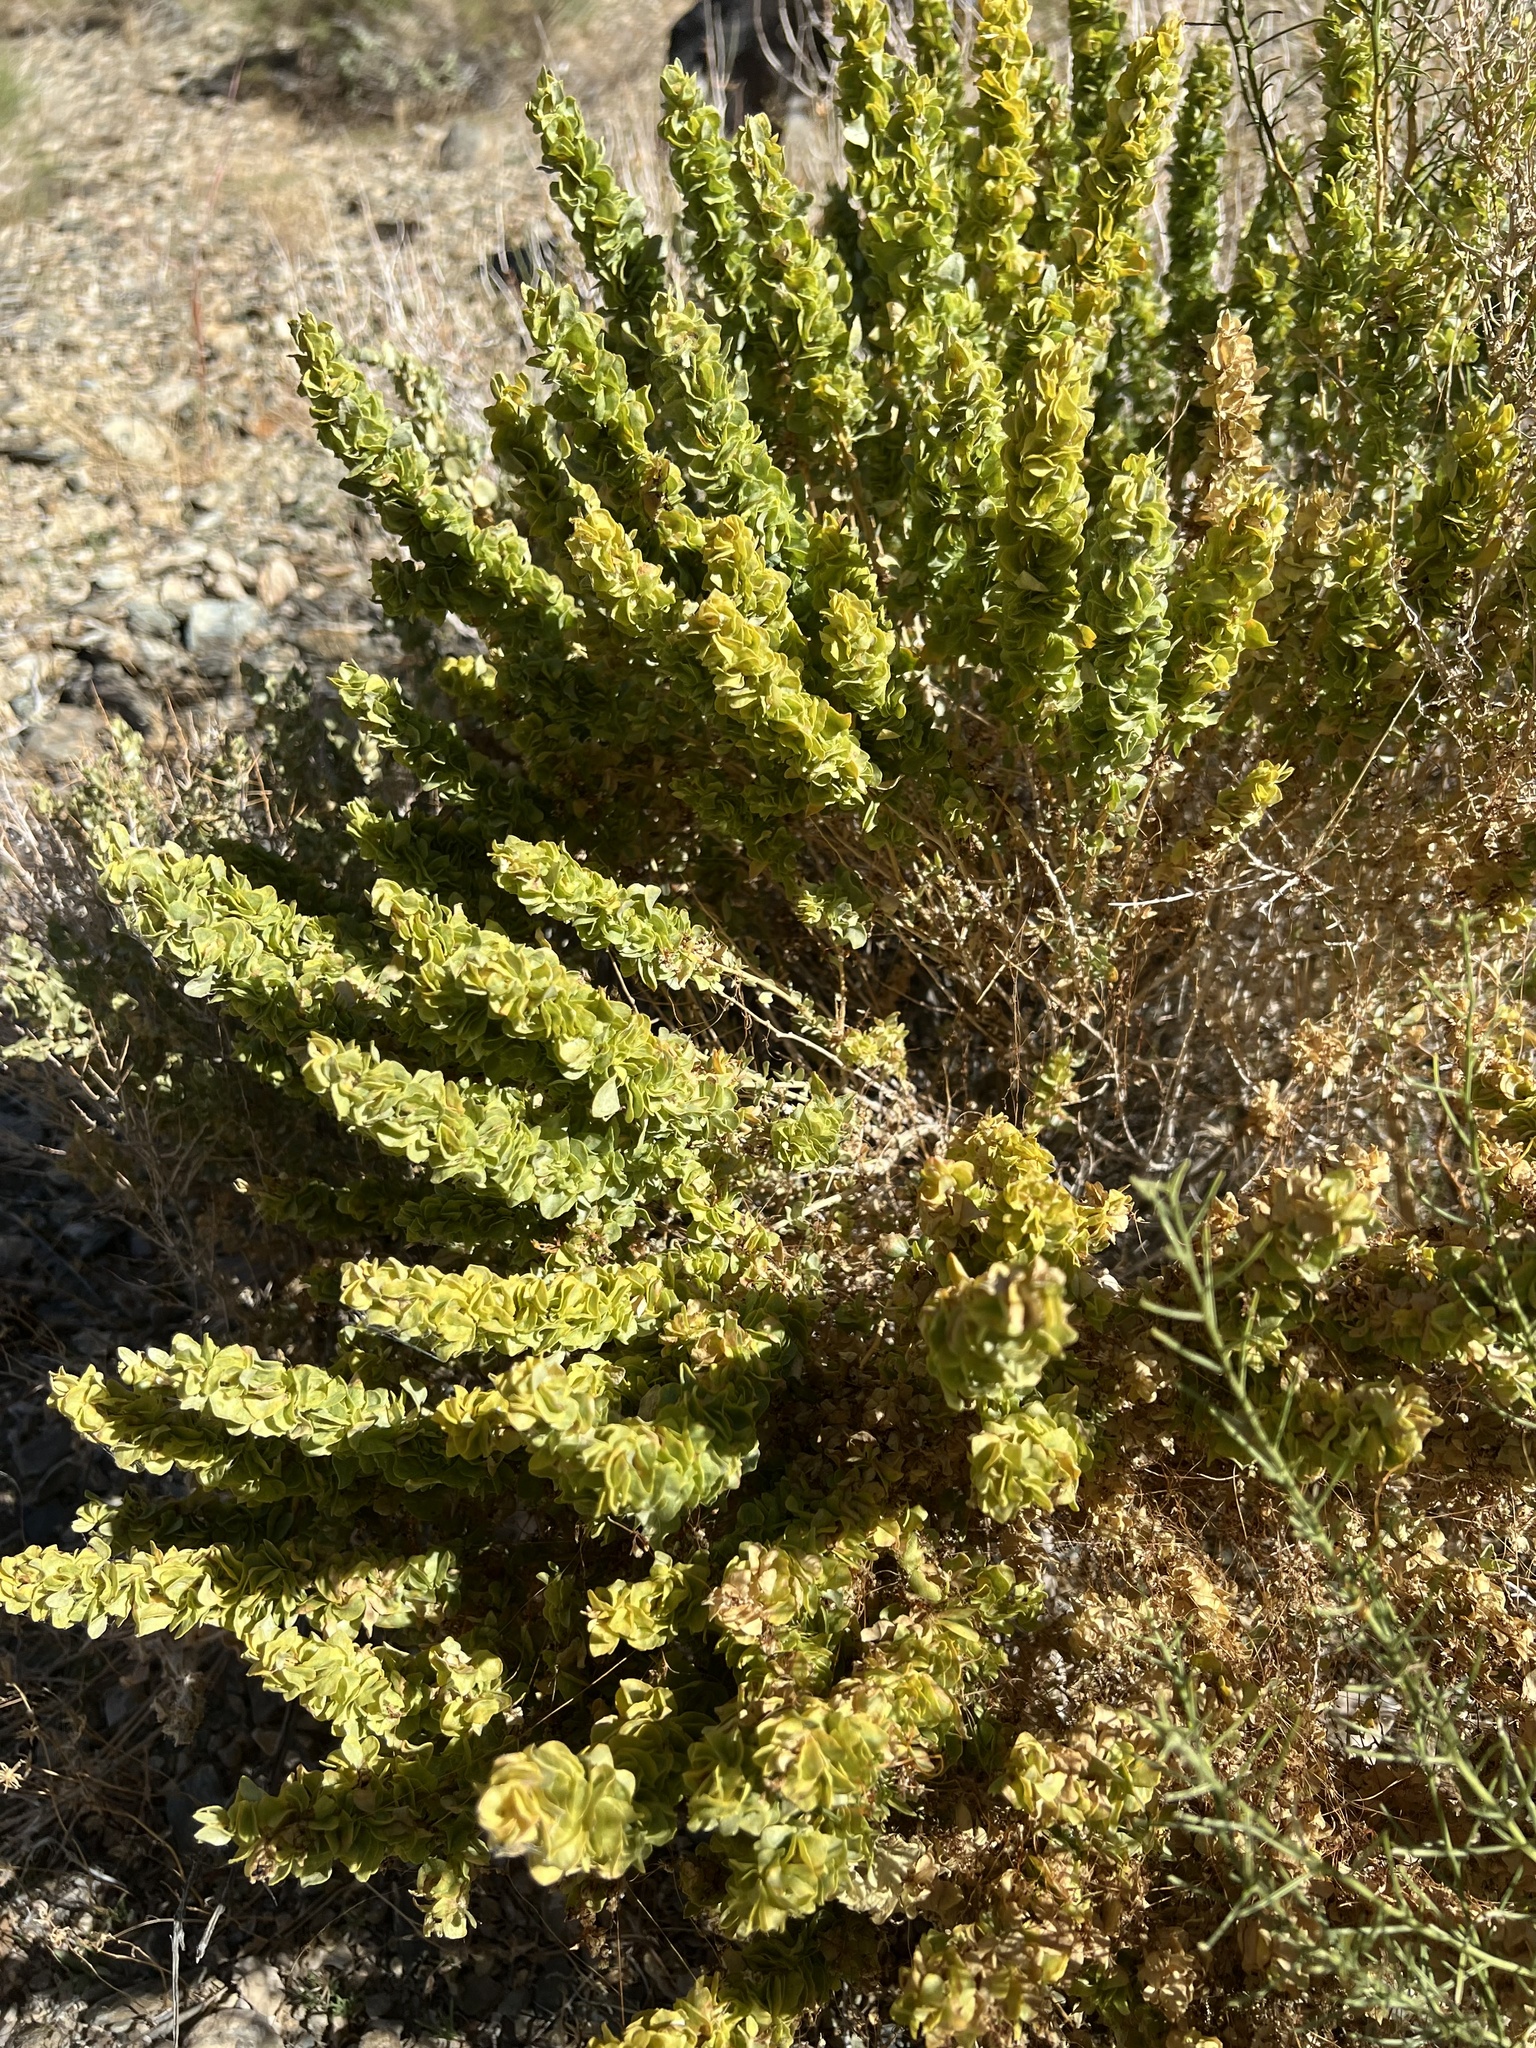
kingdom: Plantae
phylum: Tracheophyta
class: Magnoliopsida
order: Caryophyllales
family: Amaranthaceae
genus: Atriplex
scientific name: Atriplex confertifolia
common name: Shadscale
